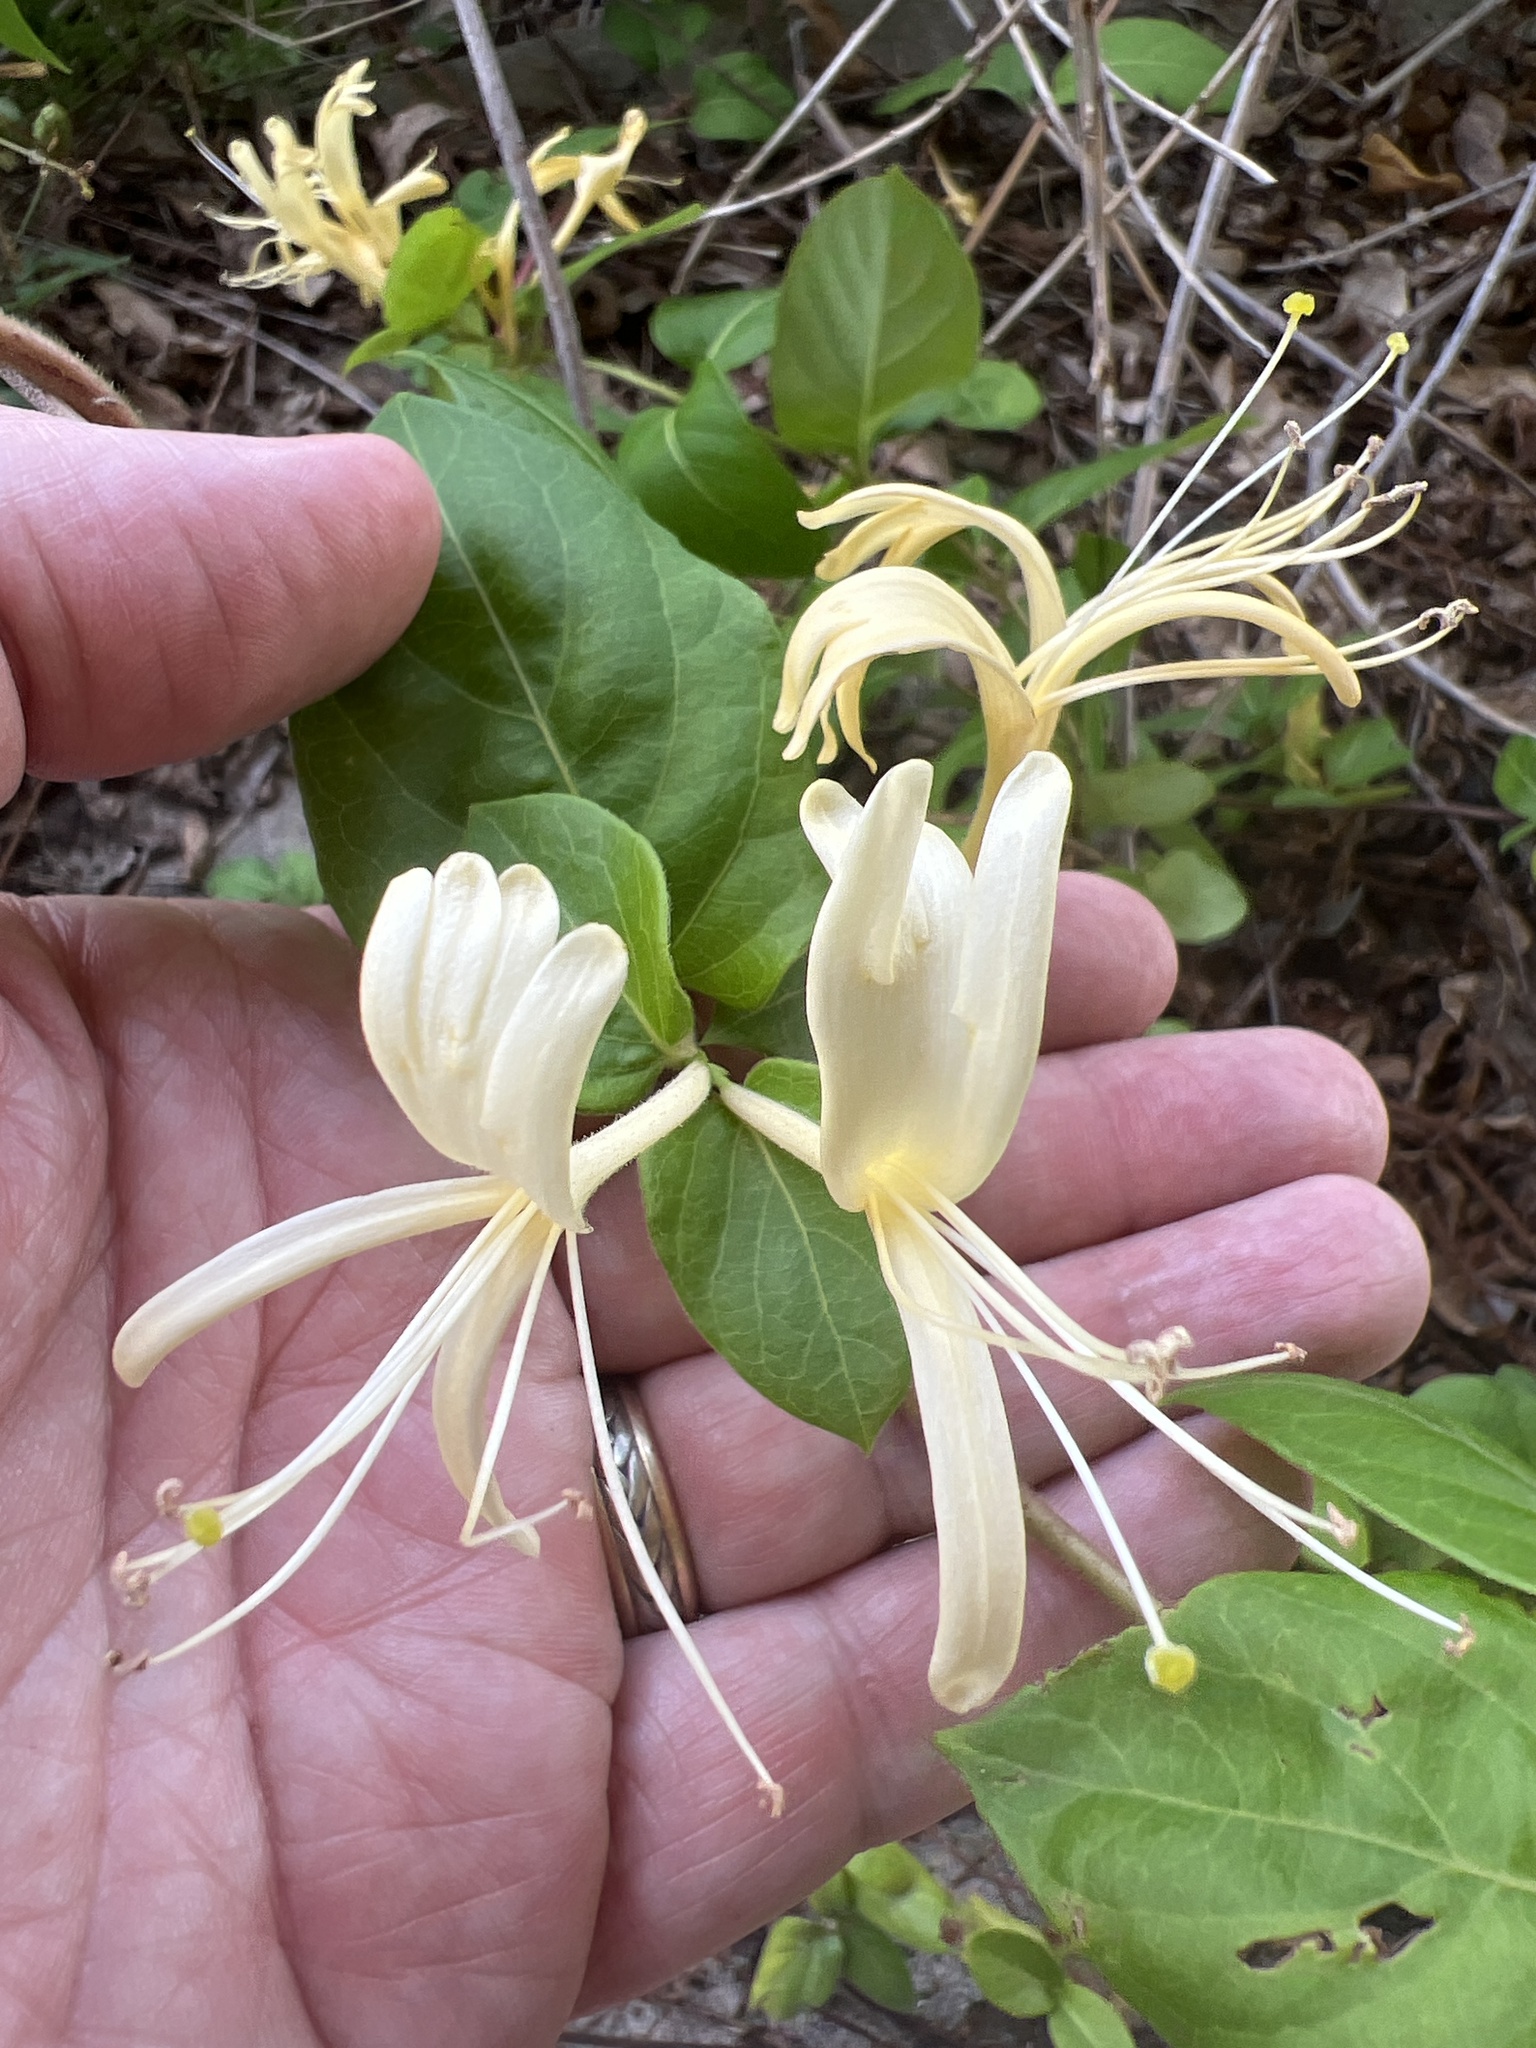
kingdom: Plantae
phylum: Tracheophyta
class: Magnoliopsida
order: Dipsacales
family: Caprifoliaceae
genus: Lonicera
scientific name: Lonicera japonica
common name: Japanese honeysuckle
